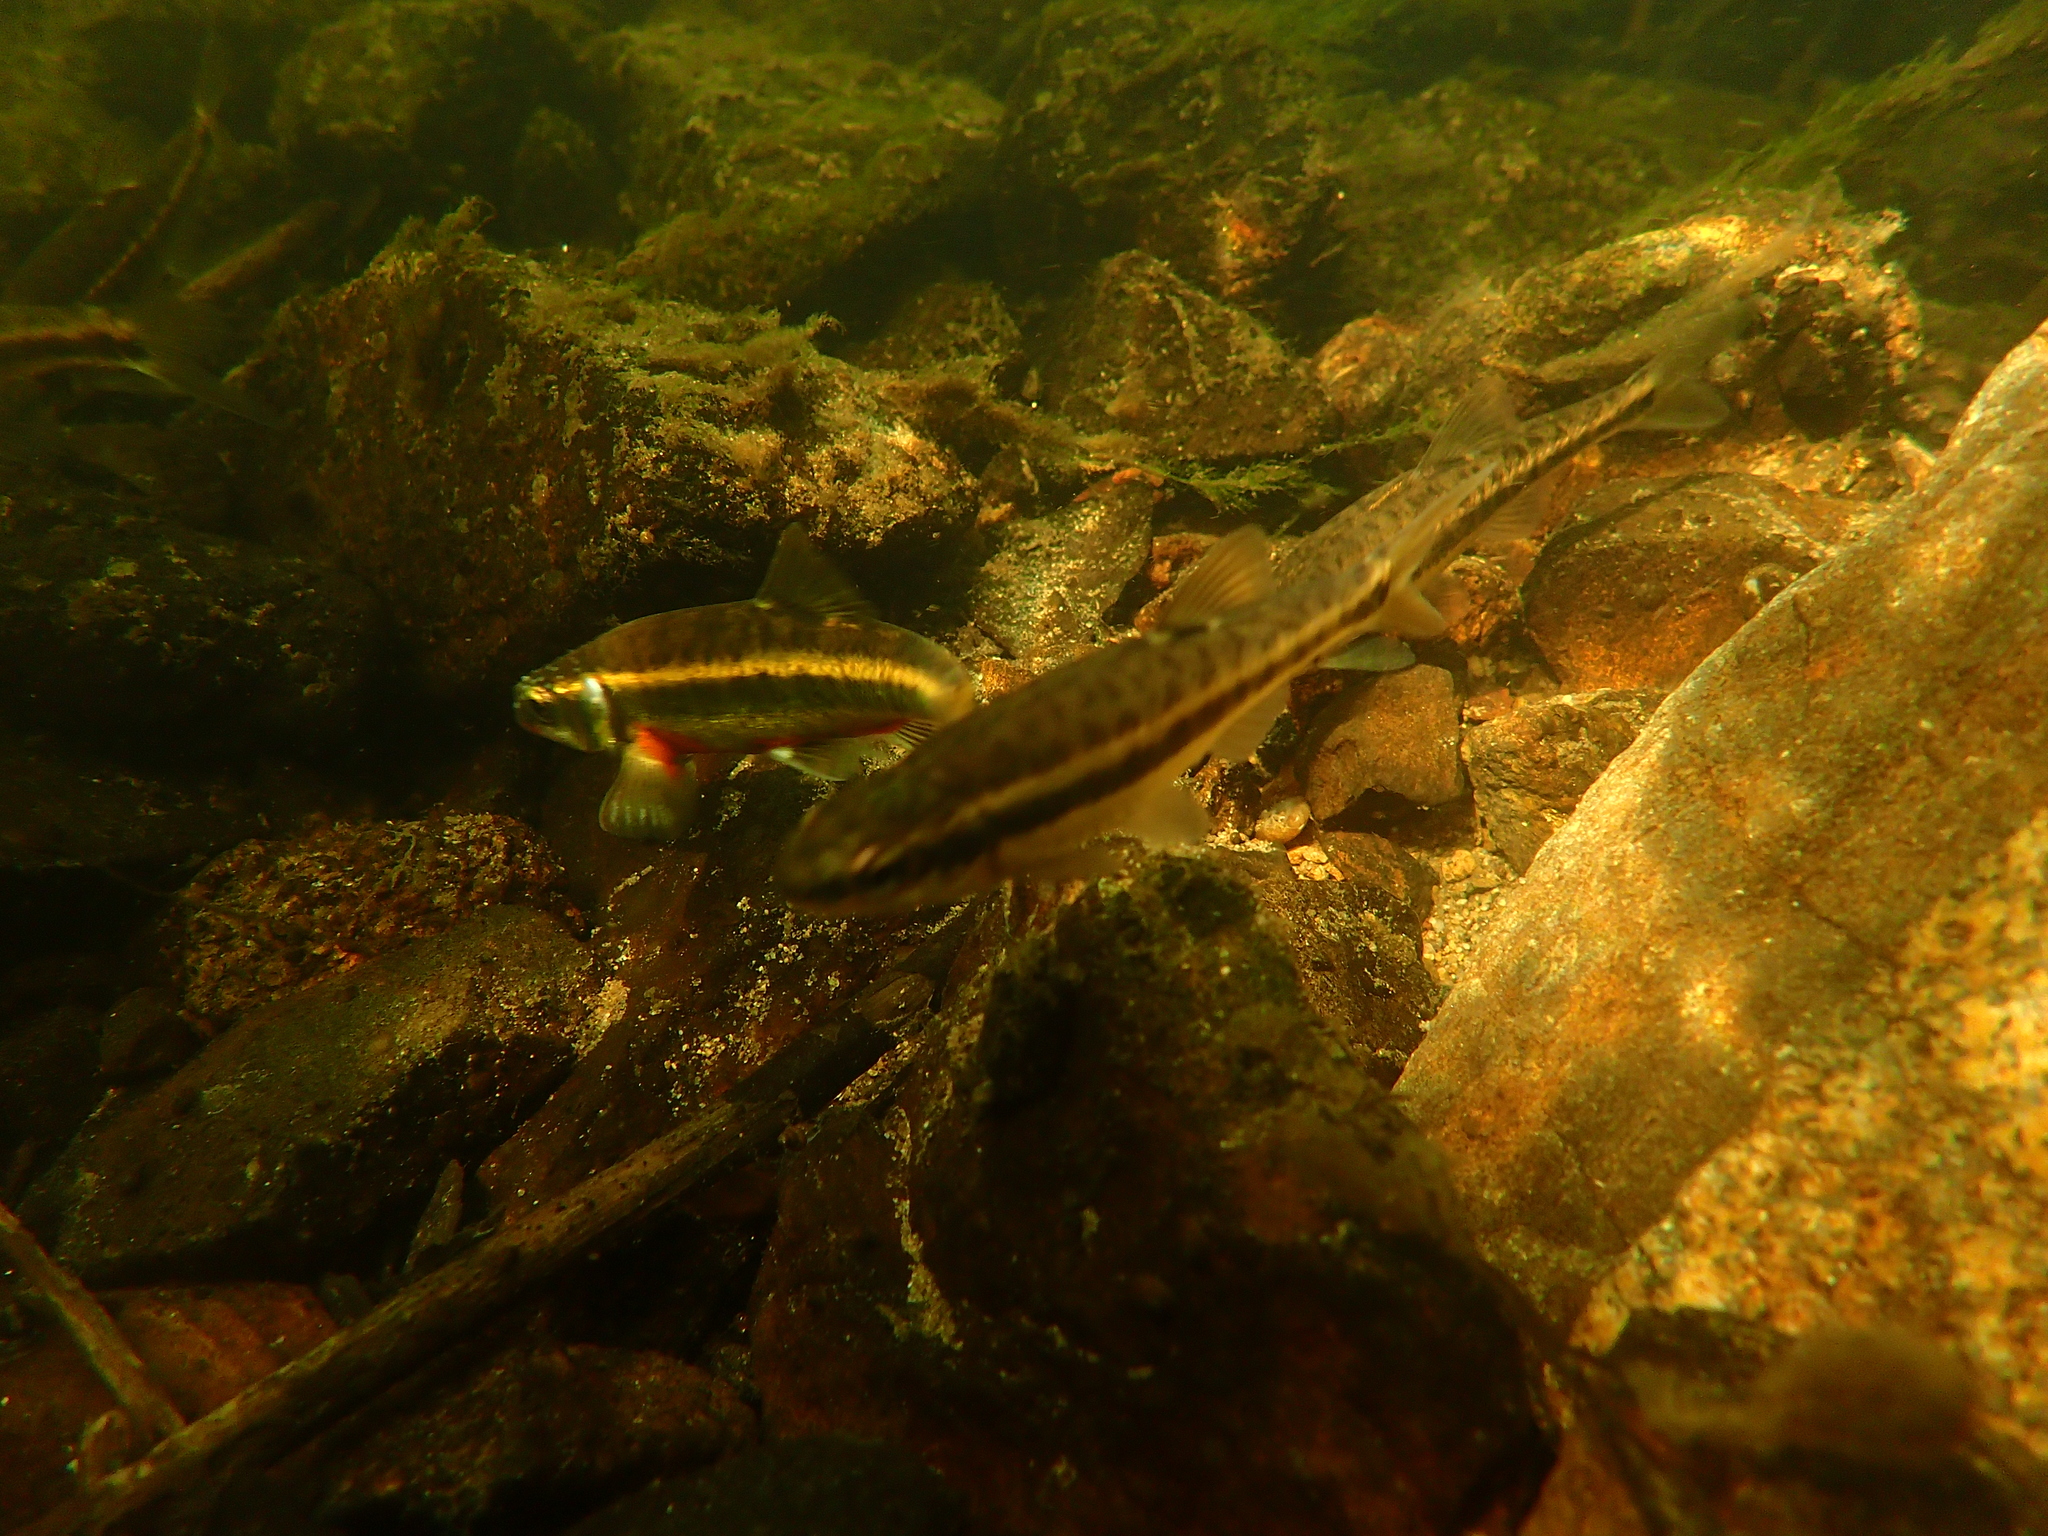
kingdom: Animalia
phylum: Chordata
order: Cypriniformes
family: Cyprinidae
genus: Phoxinus
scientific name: Phoxinus phoxinus
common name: Minnow
